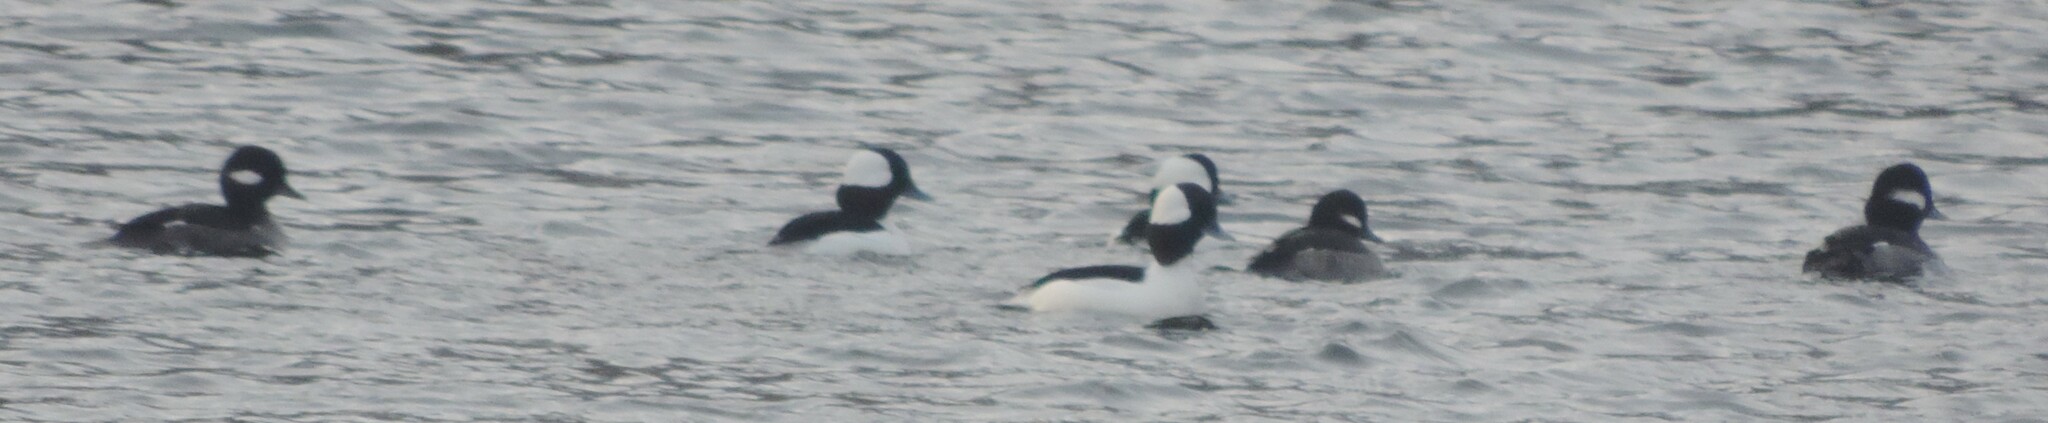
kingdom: Animalia
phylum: Chordata
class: Aves
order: Anseriformes
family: Anatidae
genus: Bucephala
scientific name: Bucephala albeola
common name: Bufflehead
